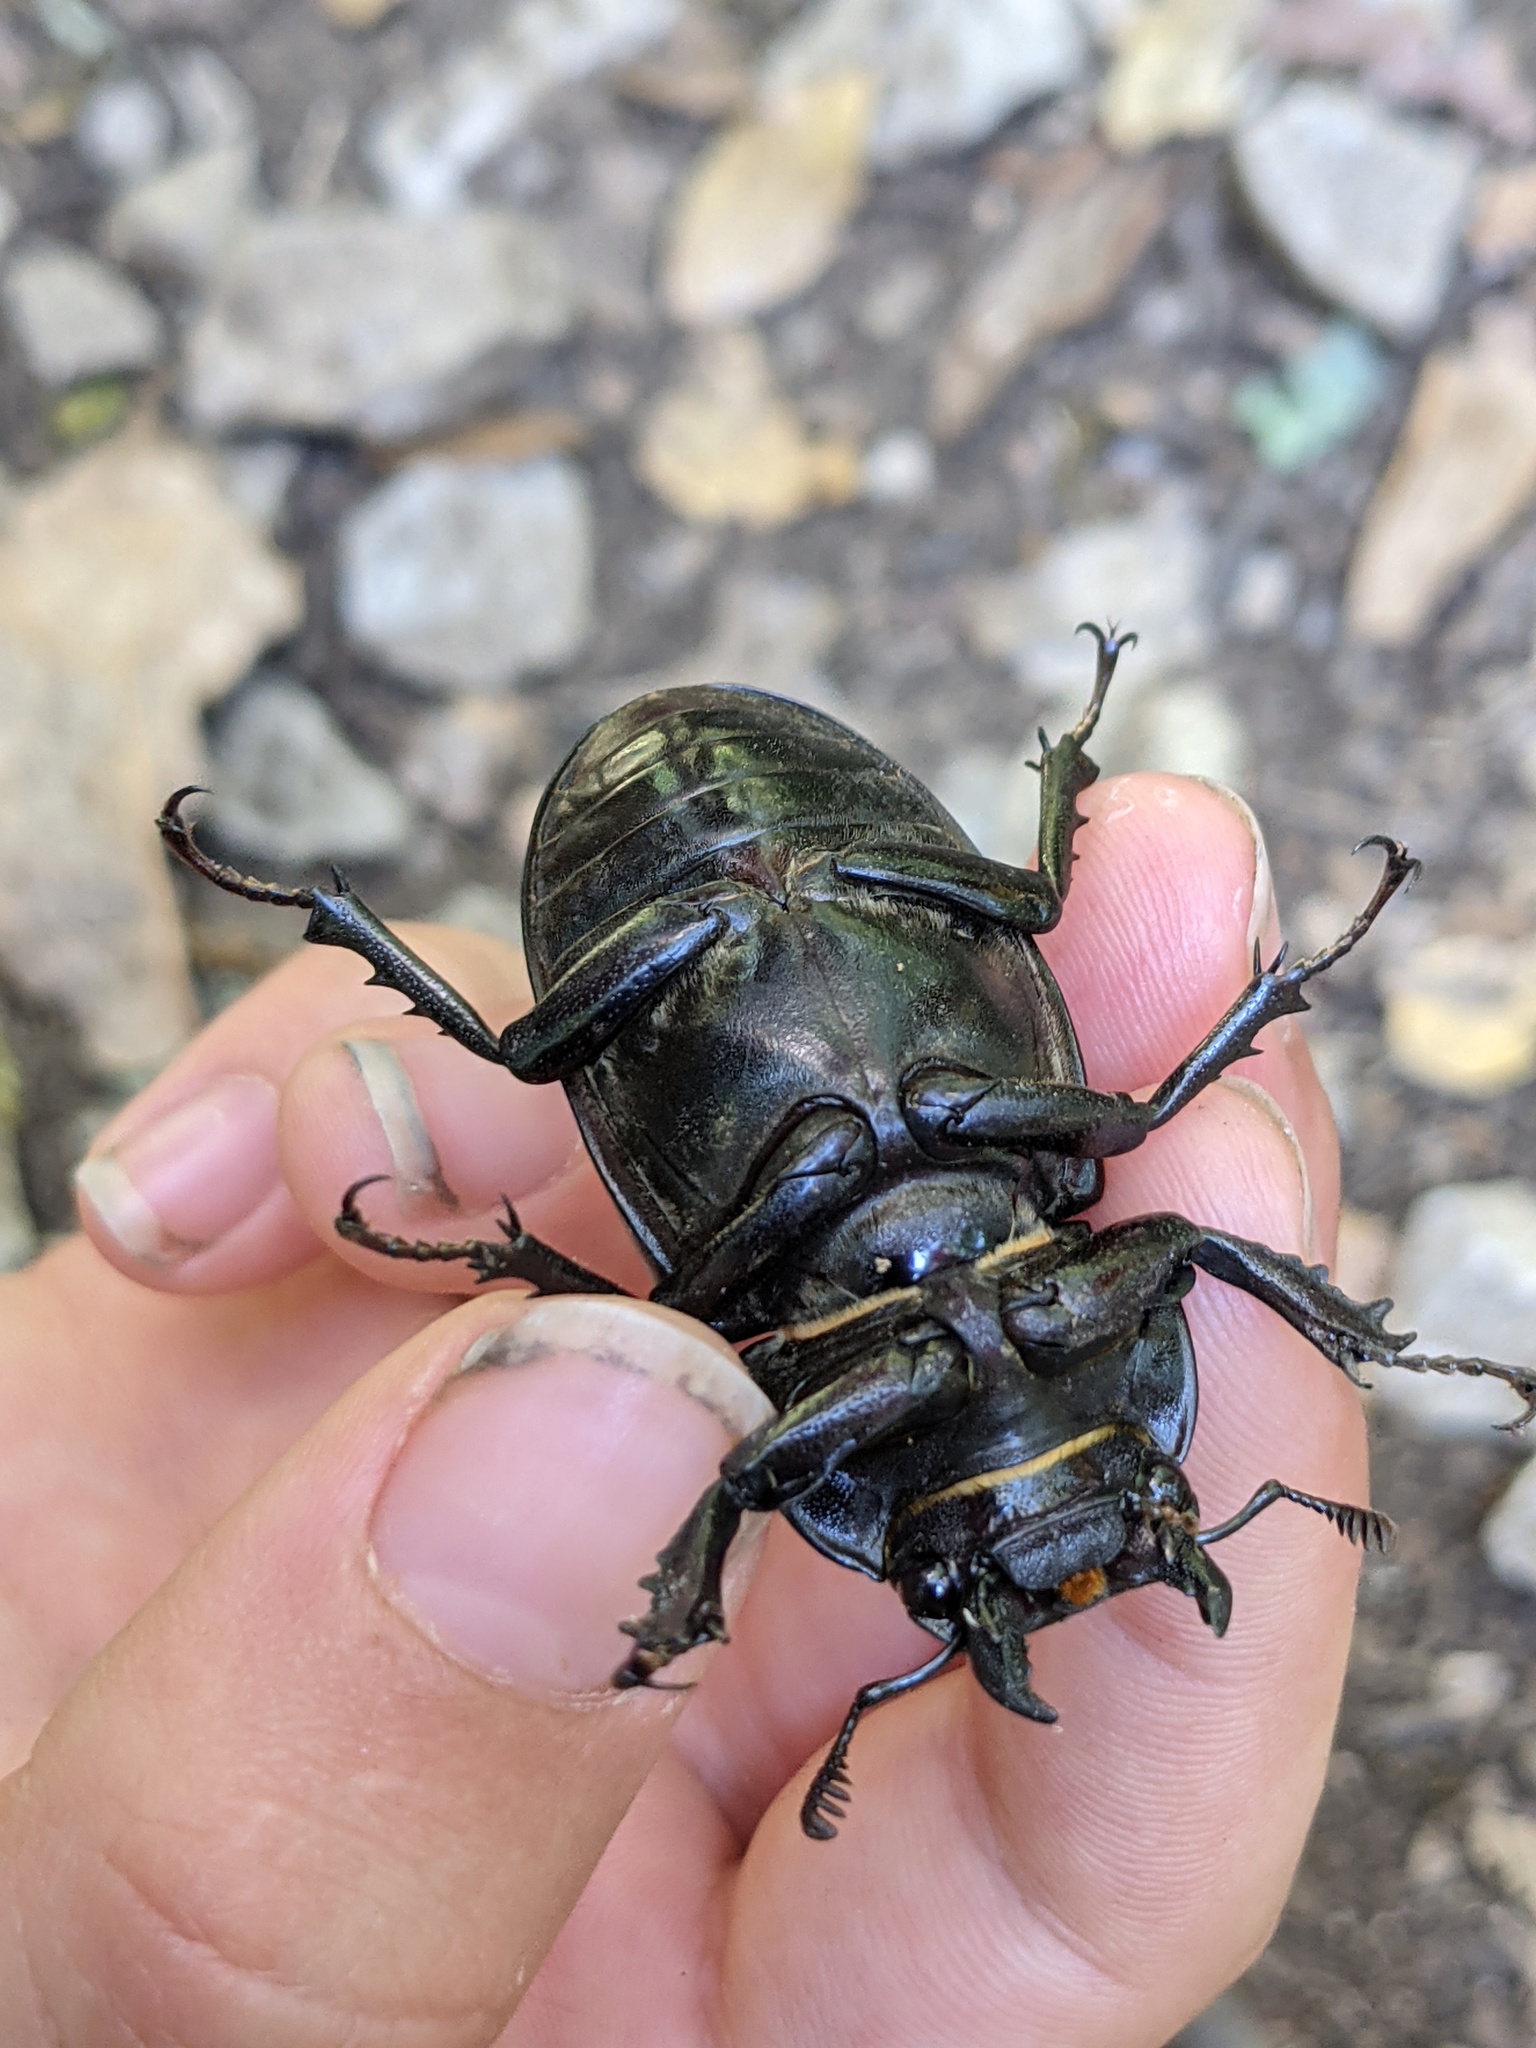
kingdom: Animalia
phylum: Arthropoda
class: Insecta
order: Coleoptera
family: Lucanidae
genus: Lucanus
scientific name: Lucanus cervus
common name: Stag beetle
